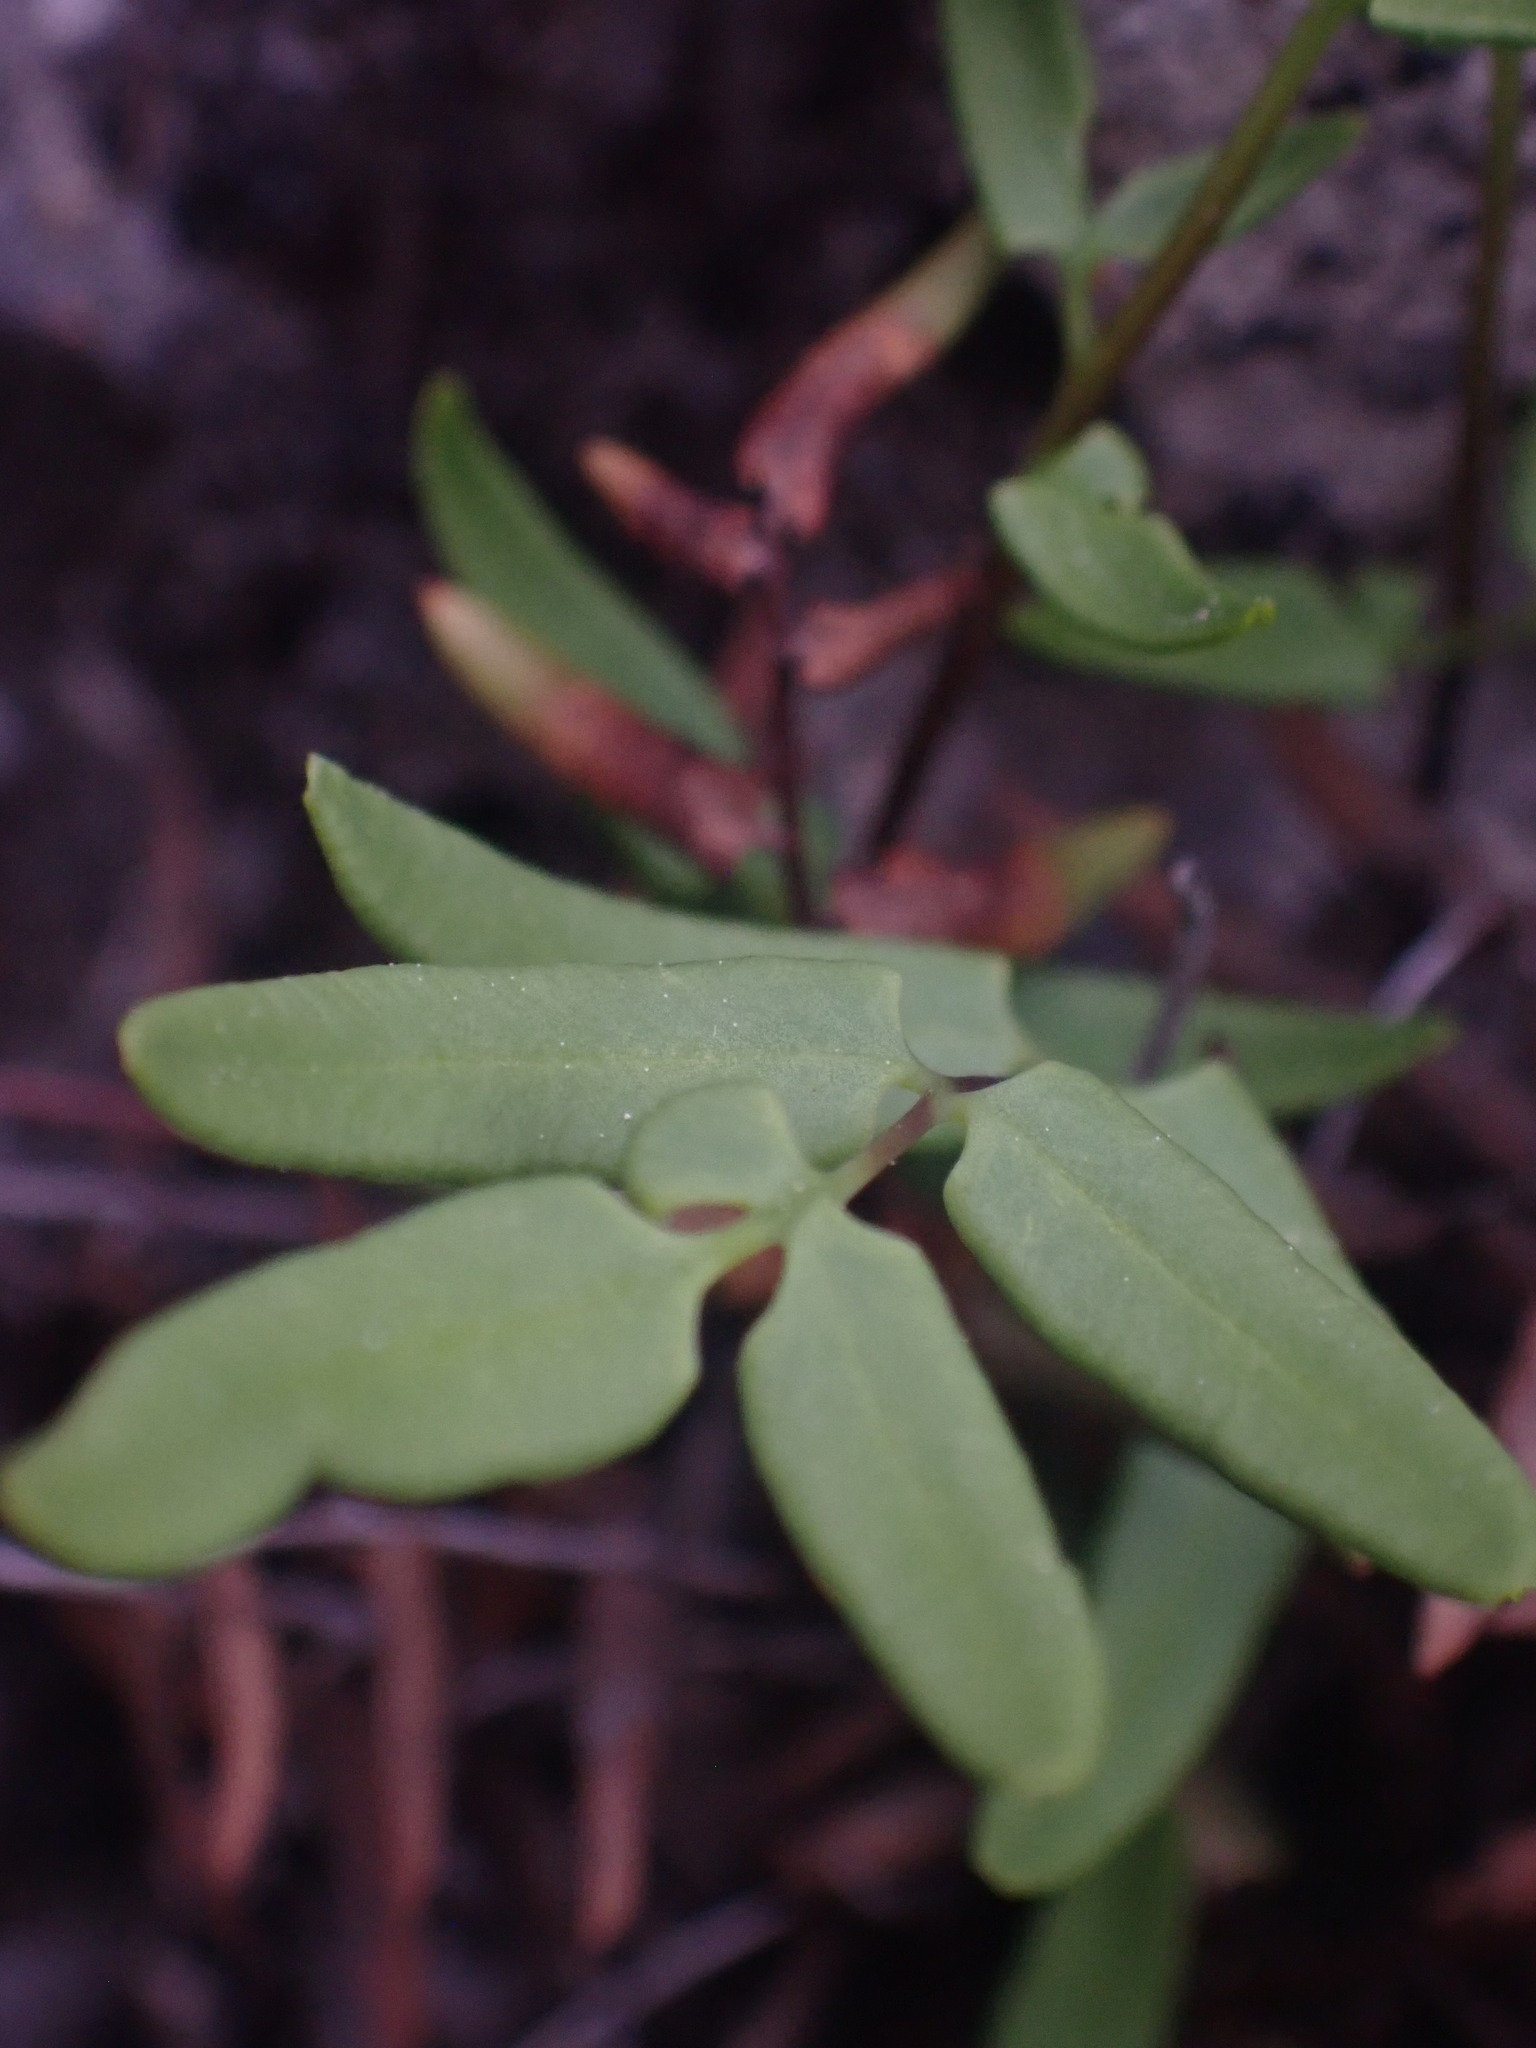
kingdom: Plantae
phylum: Tracheophyta
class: Polypodiopsida
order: Polypodiales
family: Pteridaceae
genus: Pellaea
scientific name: Pellaea glabella
